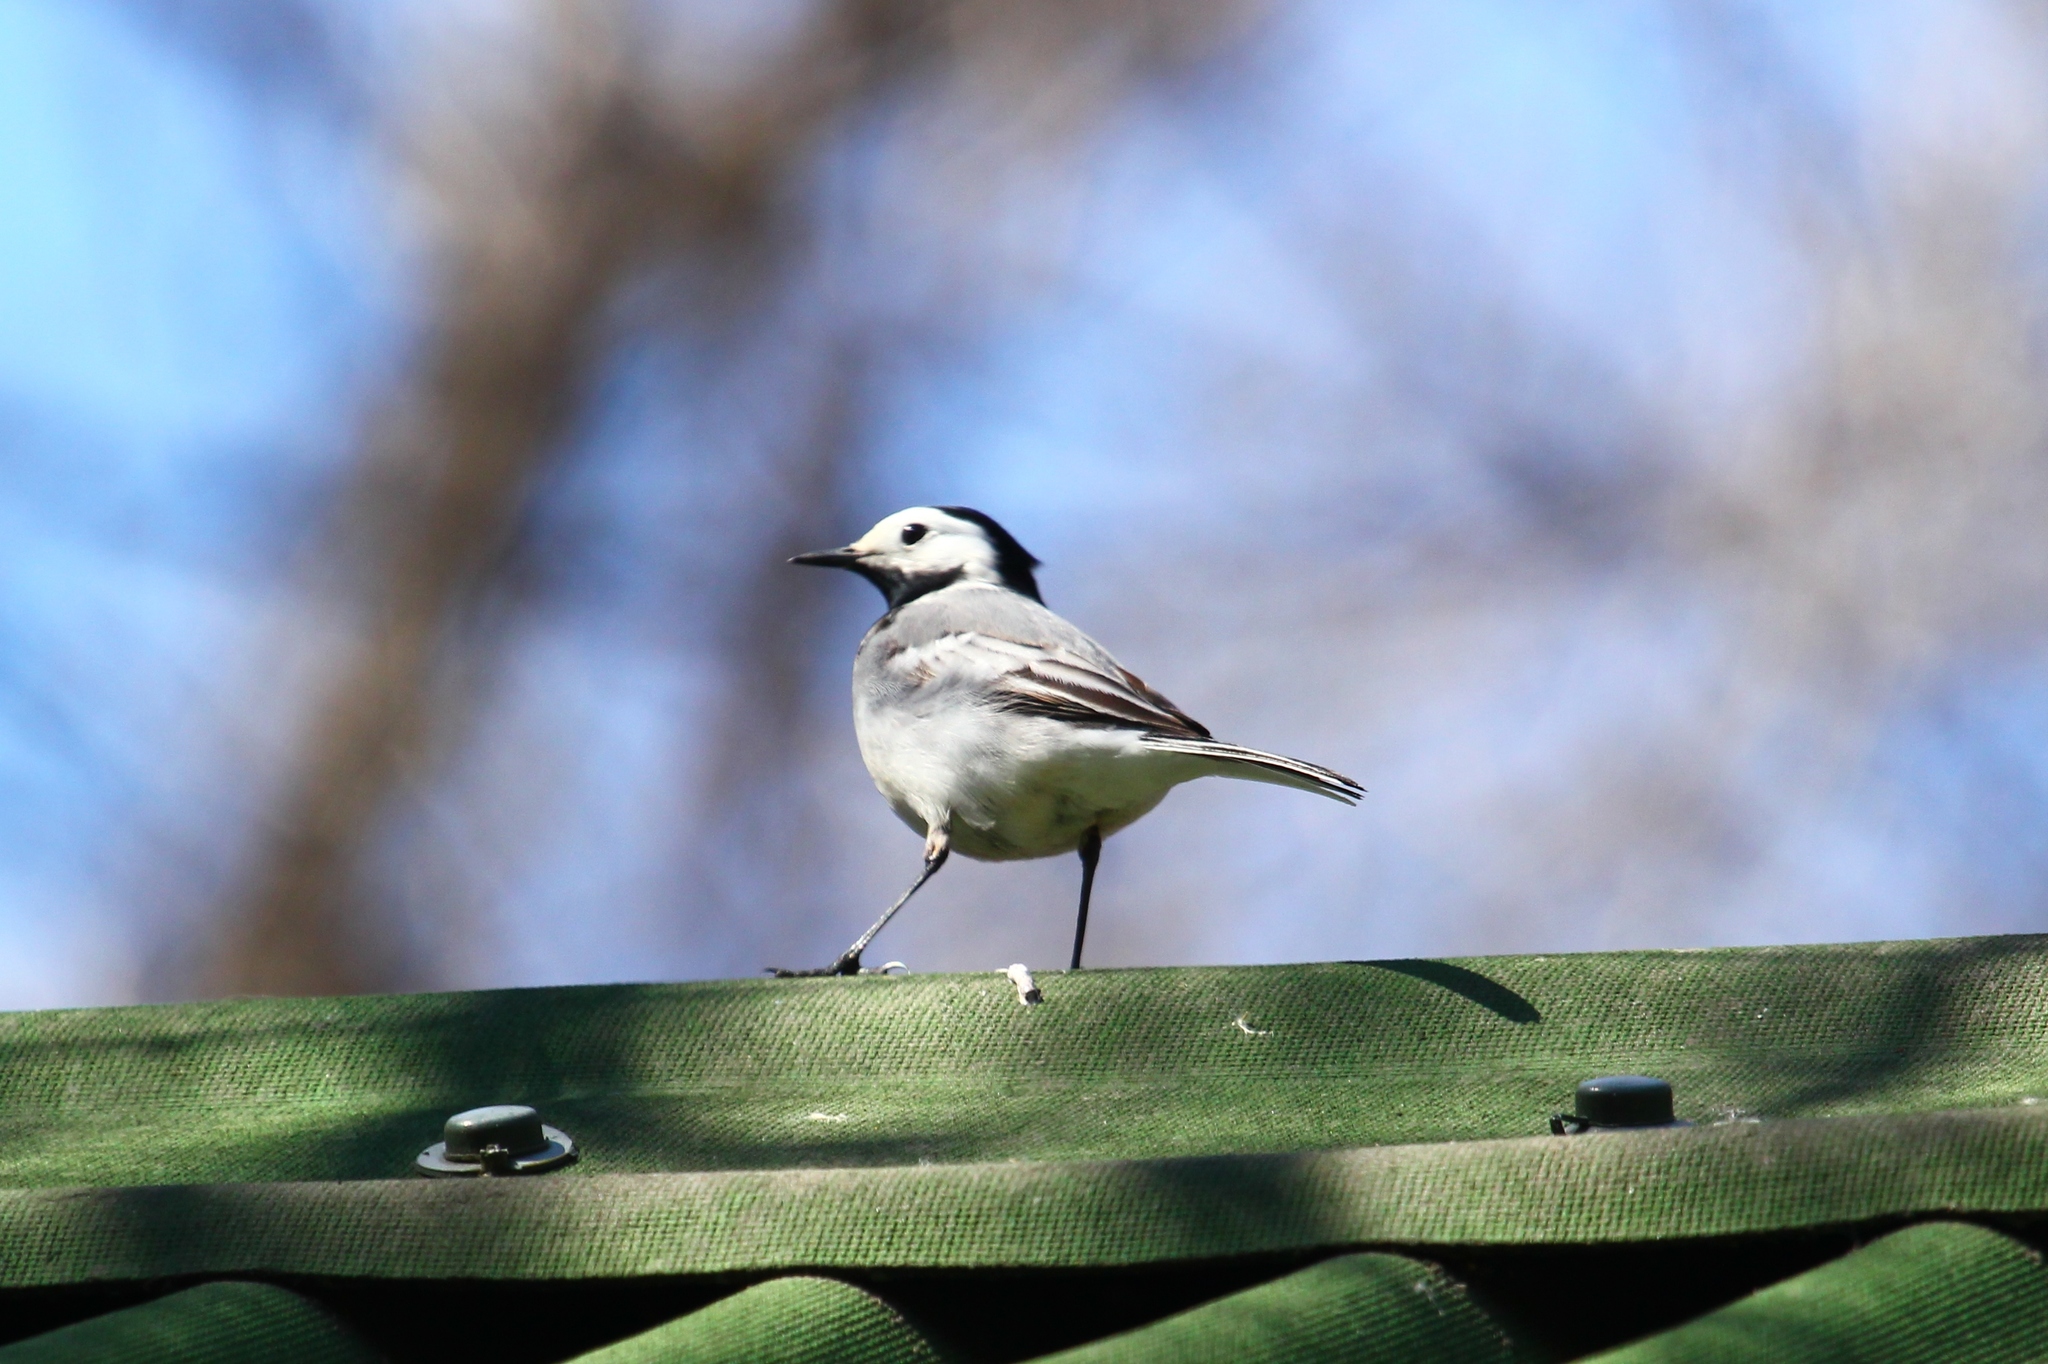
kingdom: Animalia
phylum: Chordata
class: Aves
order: Passeriformes
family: Motacillidae
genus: Motacilla
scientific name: Motacilla alba
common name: White wagtail
